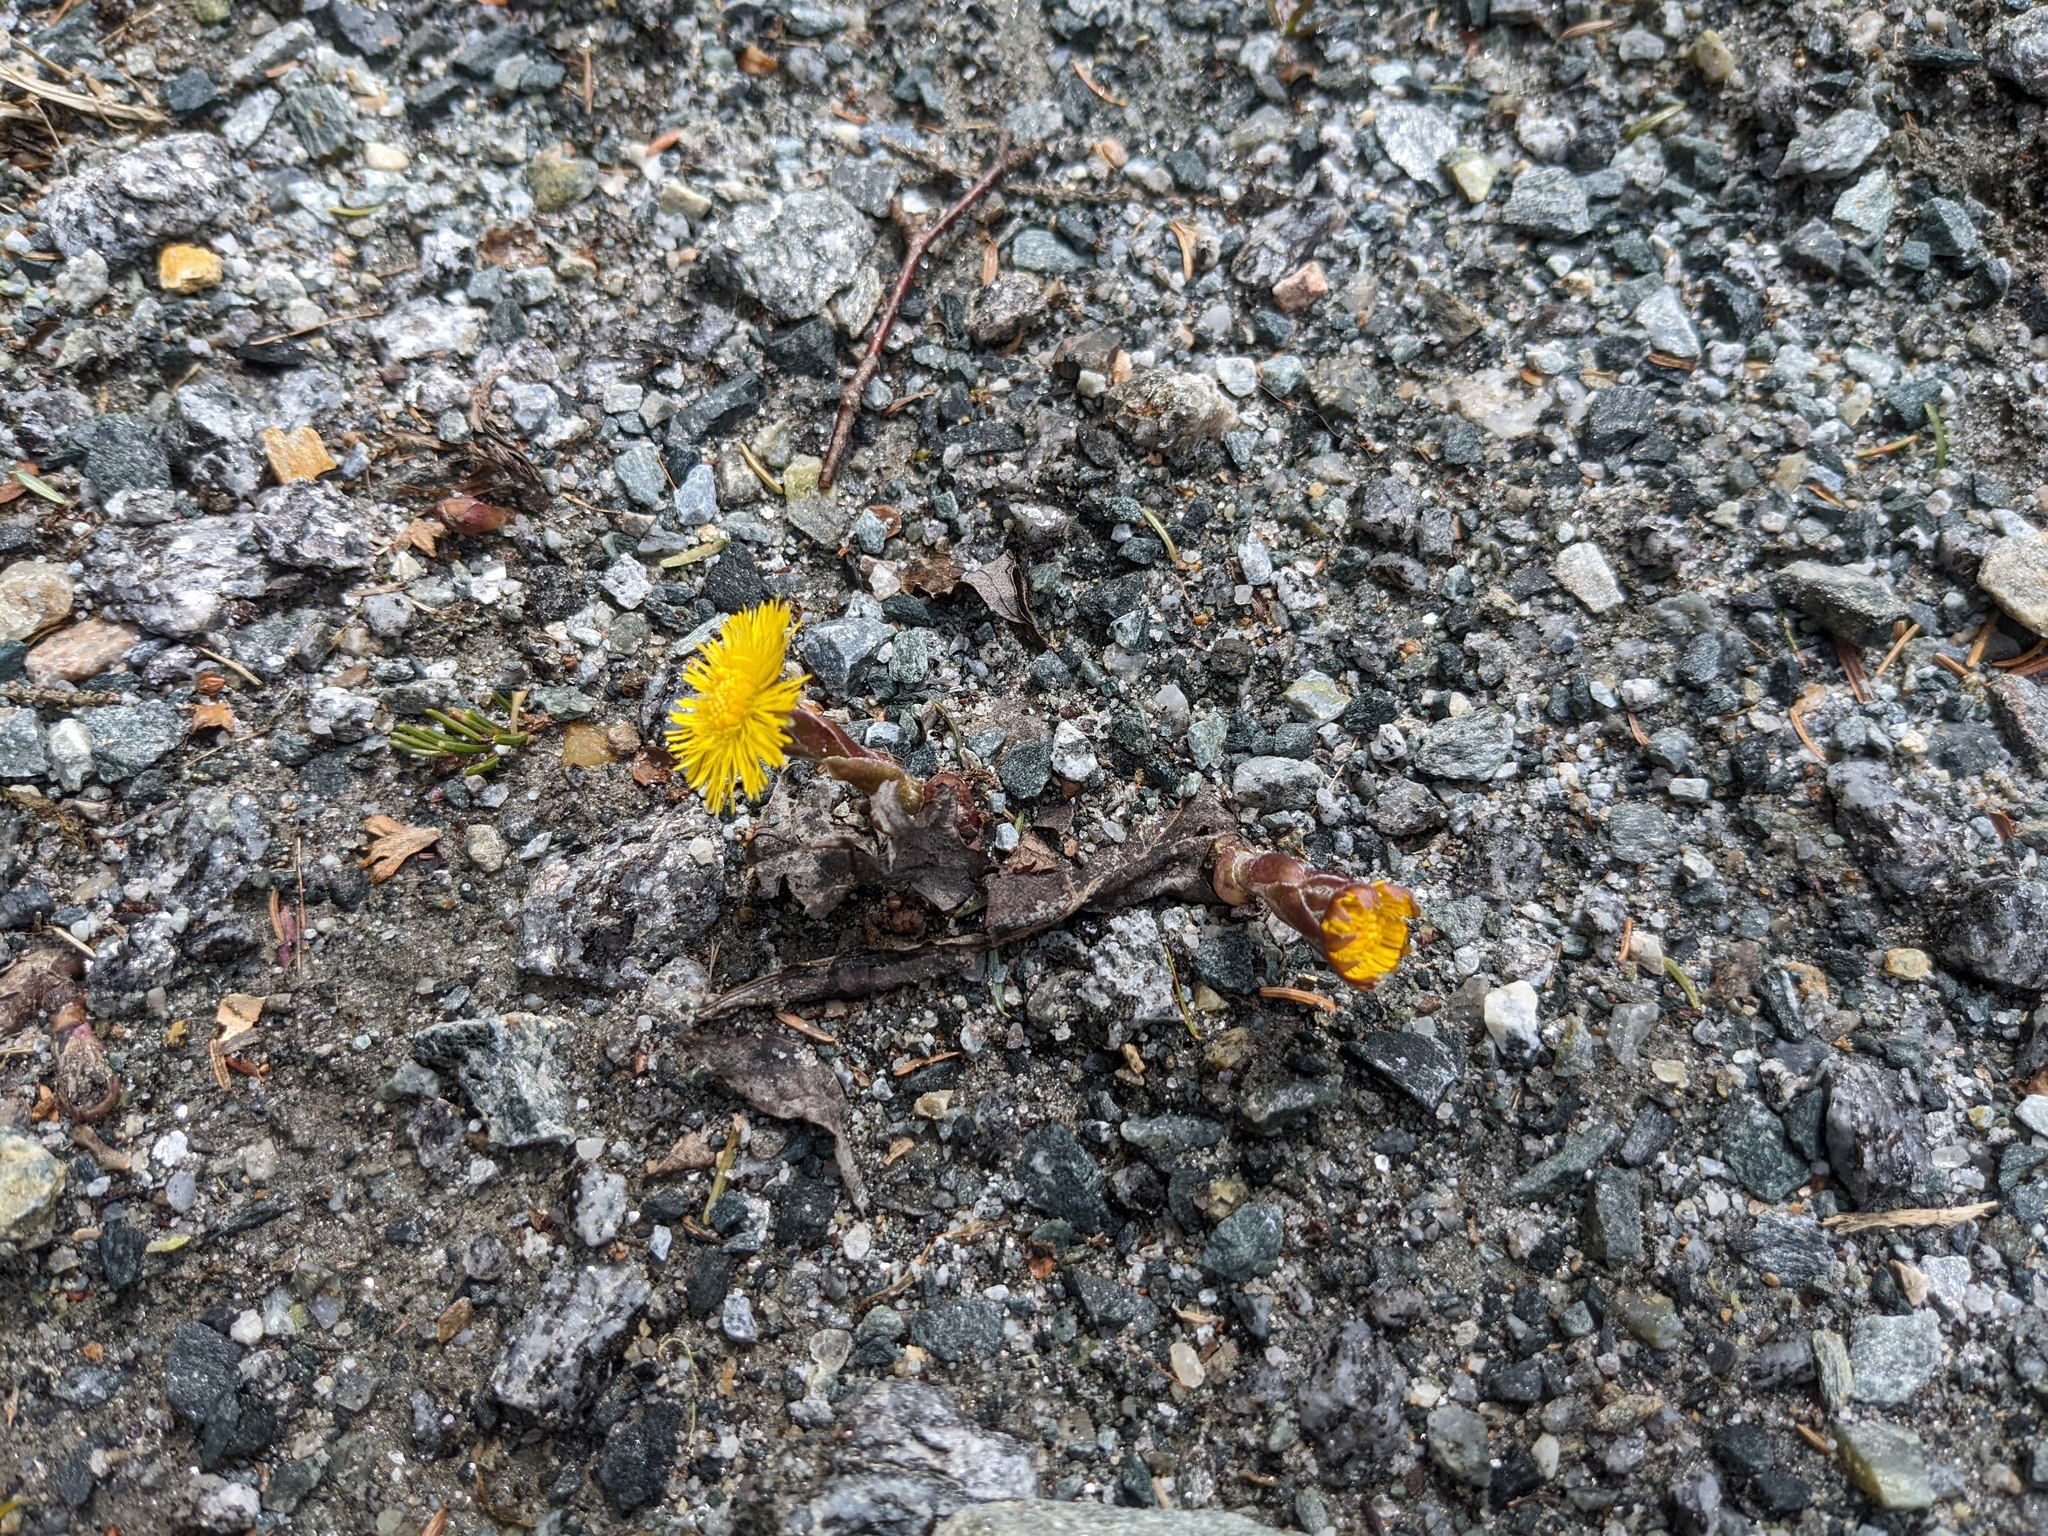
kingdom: Plantae
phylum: Tracheophyta
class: Magnoliopsida
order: Asterales
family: Asteraceae
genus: Tussilago
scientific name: Tussilago farfara
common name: Coltsfoot
